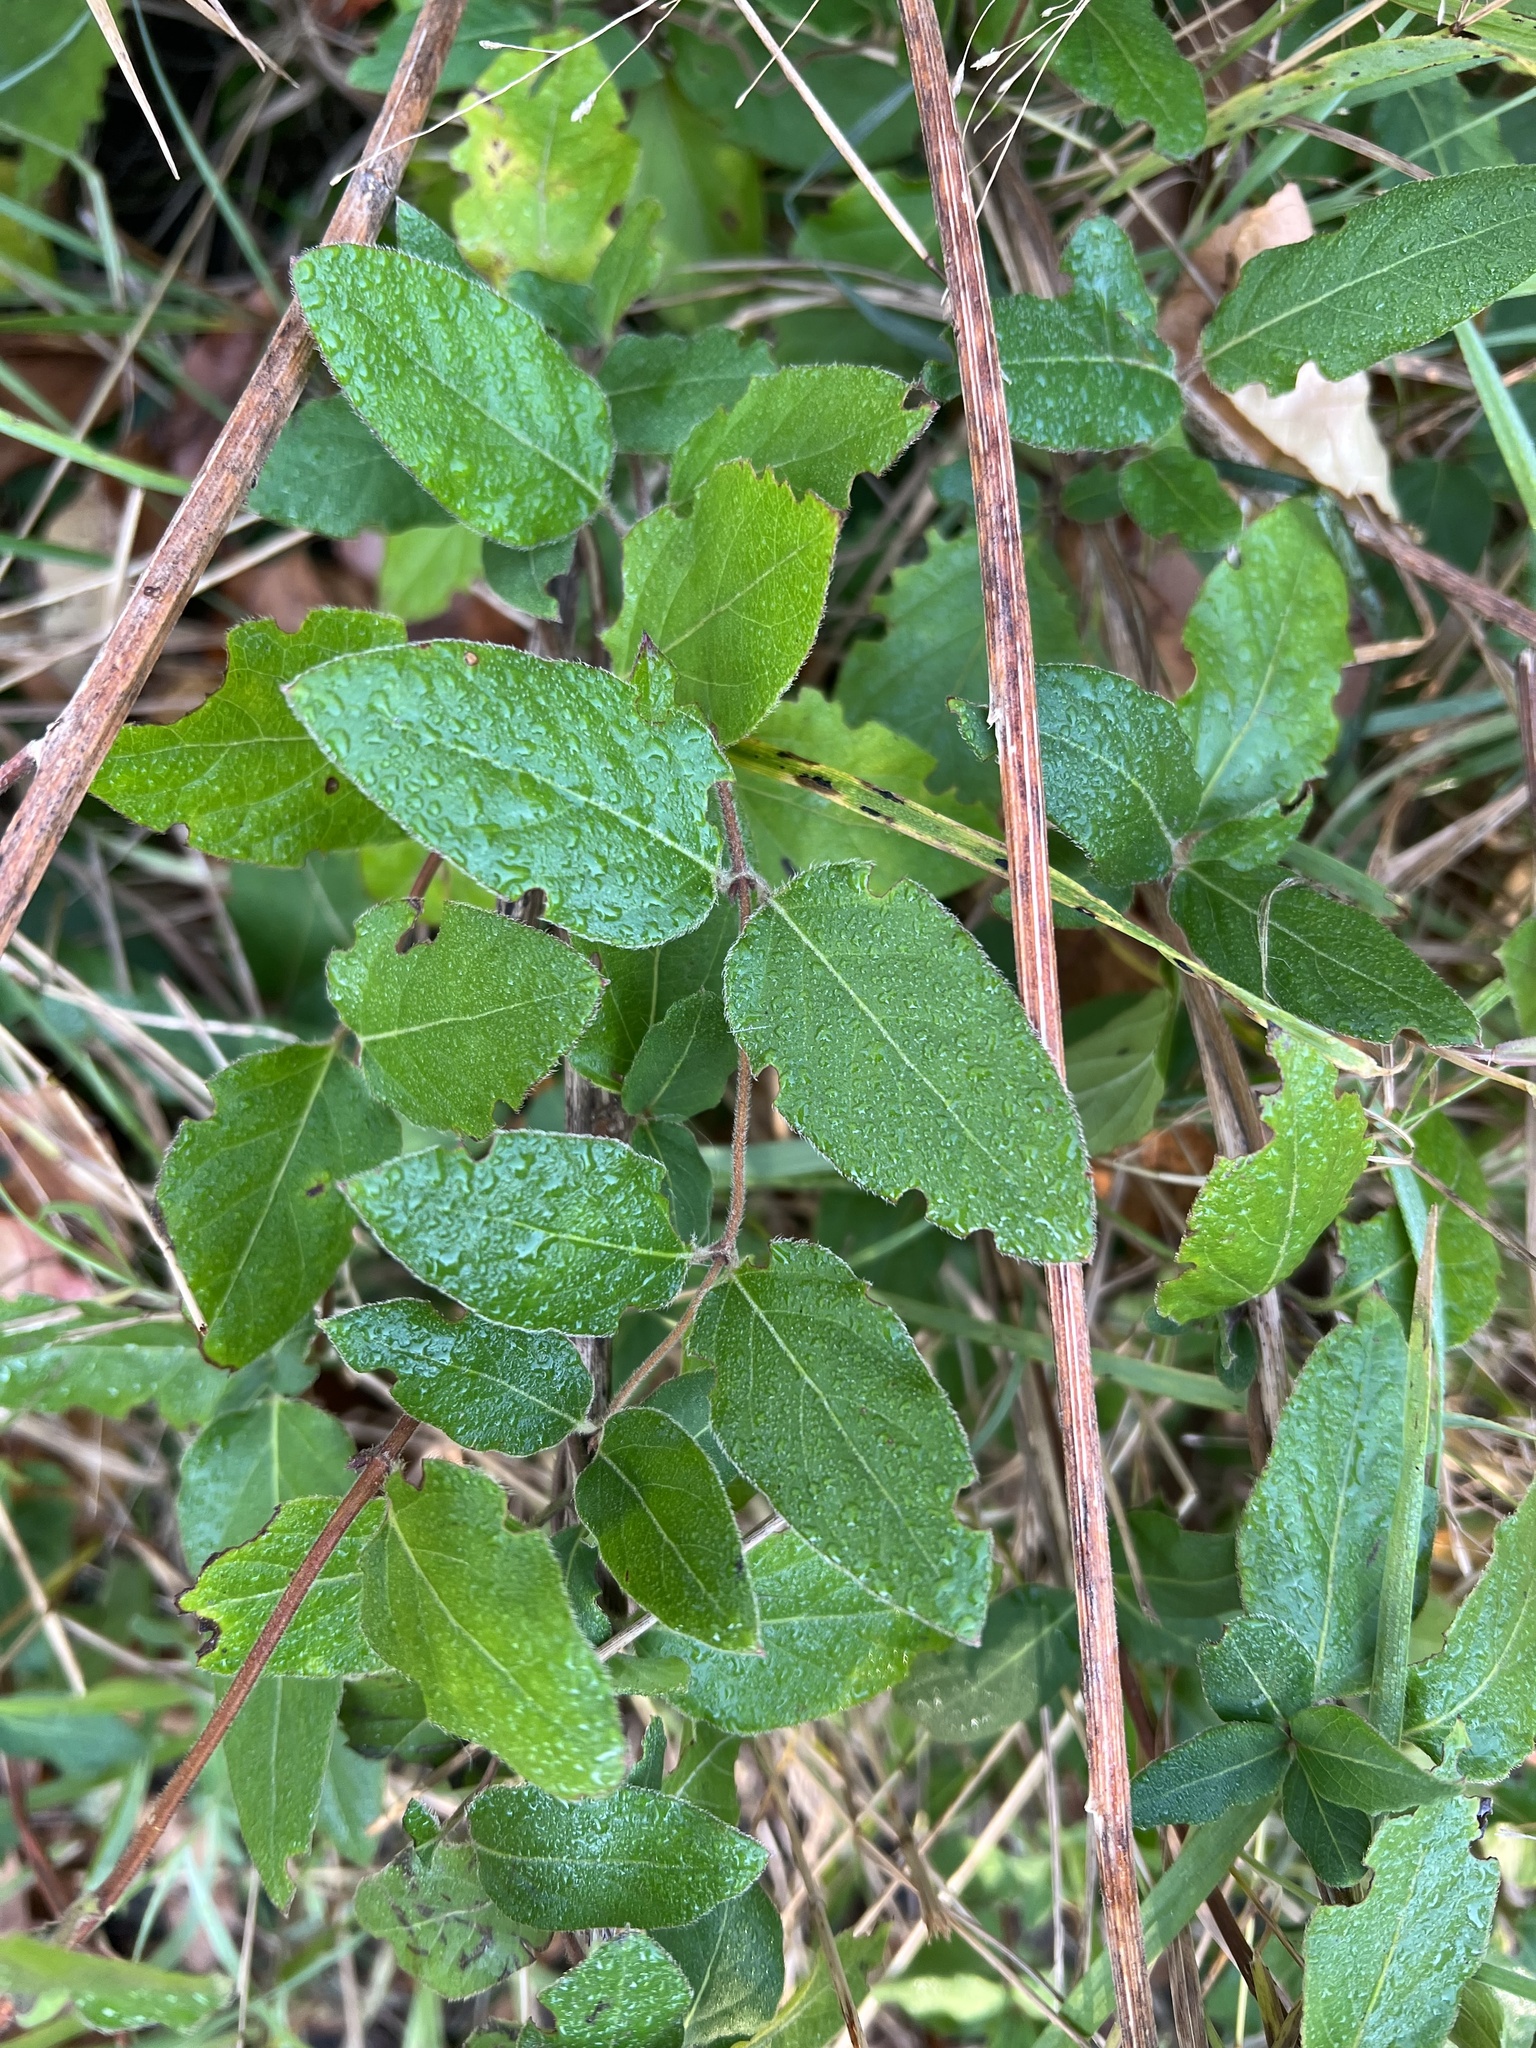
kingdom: Plantae
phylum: Tracheophyta
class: Magnoliopsida
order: Dipsacales
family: Caprifoliaceae
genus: Lonicera
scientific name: Lonicera japonica
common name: Japanese honeysuckle
